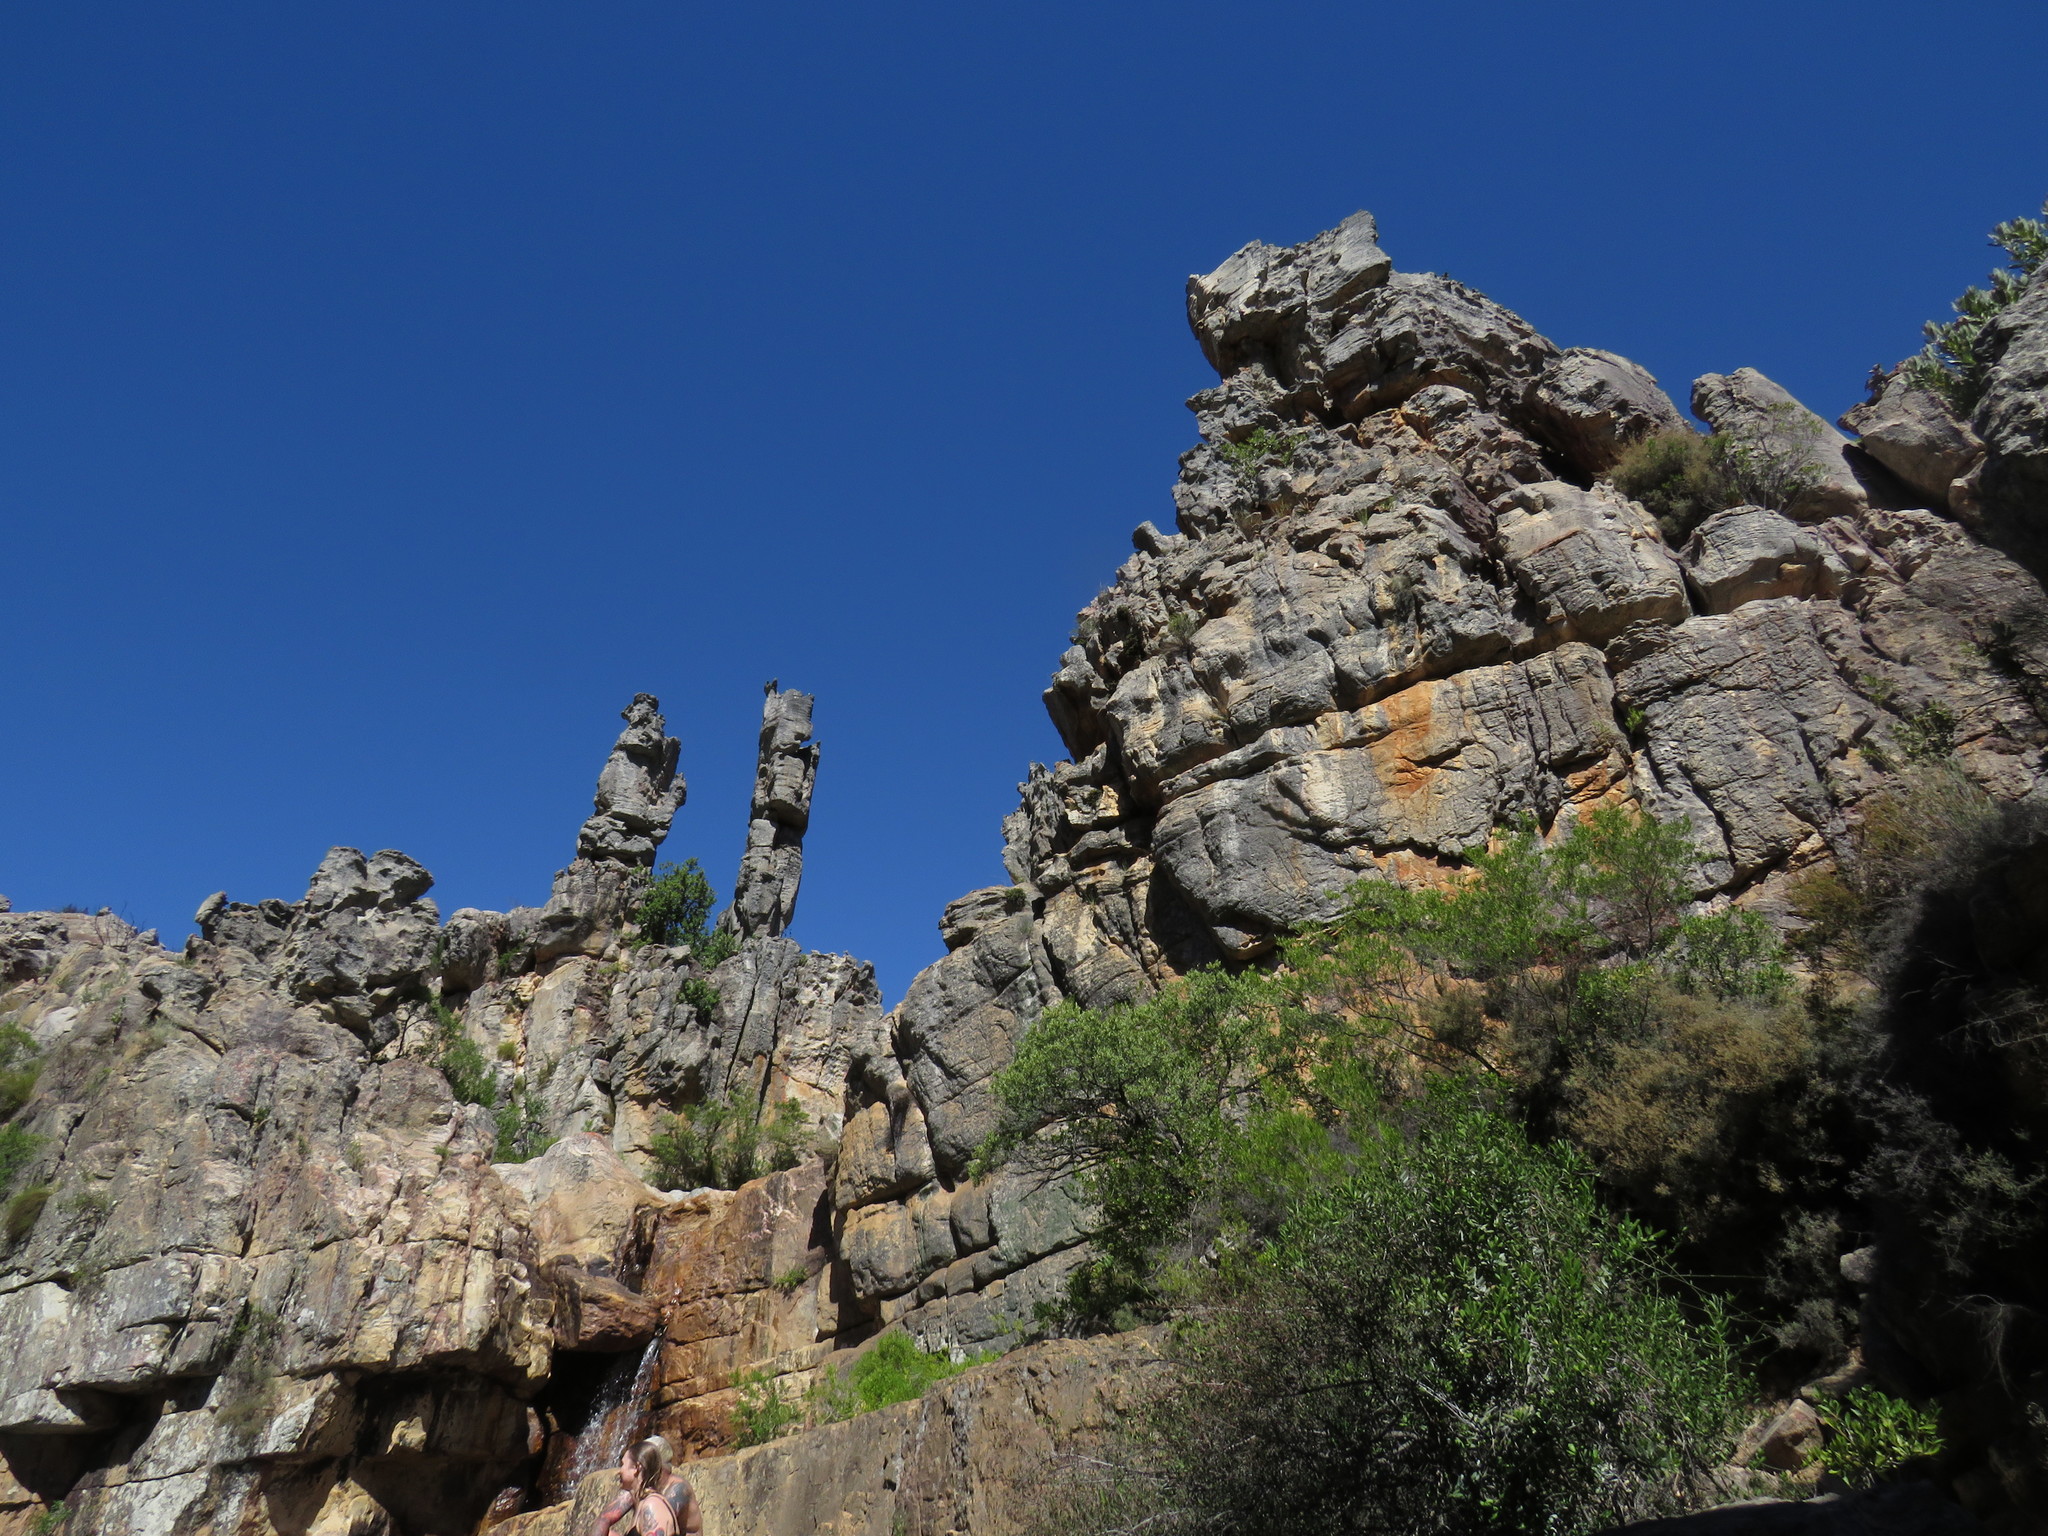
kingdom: Plantae
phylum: Tracheophyta
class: Liliopsida
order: Asparagales
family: Asphodelaceae
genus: Aloe
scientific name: Aloe perfoliata
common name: Mitra aloe
